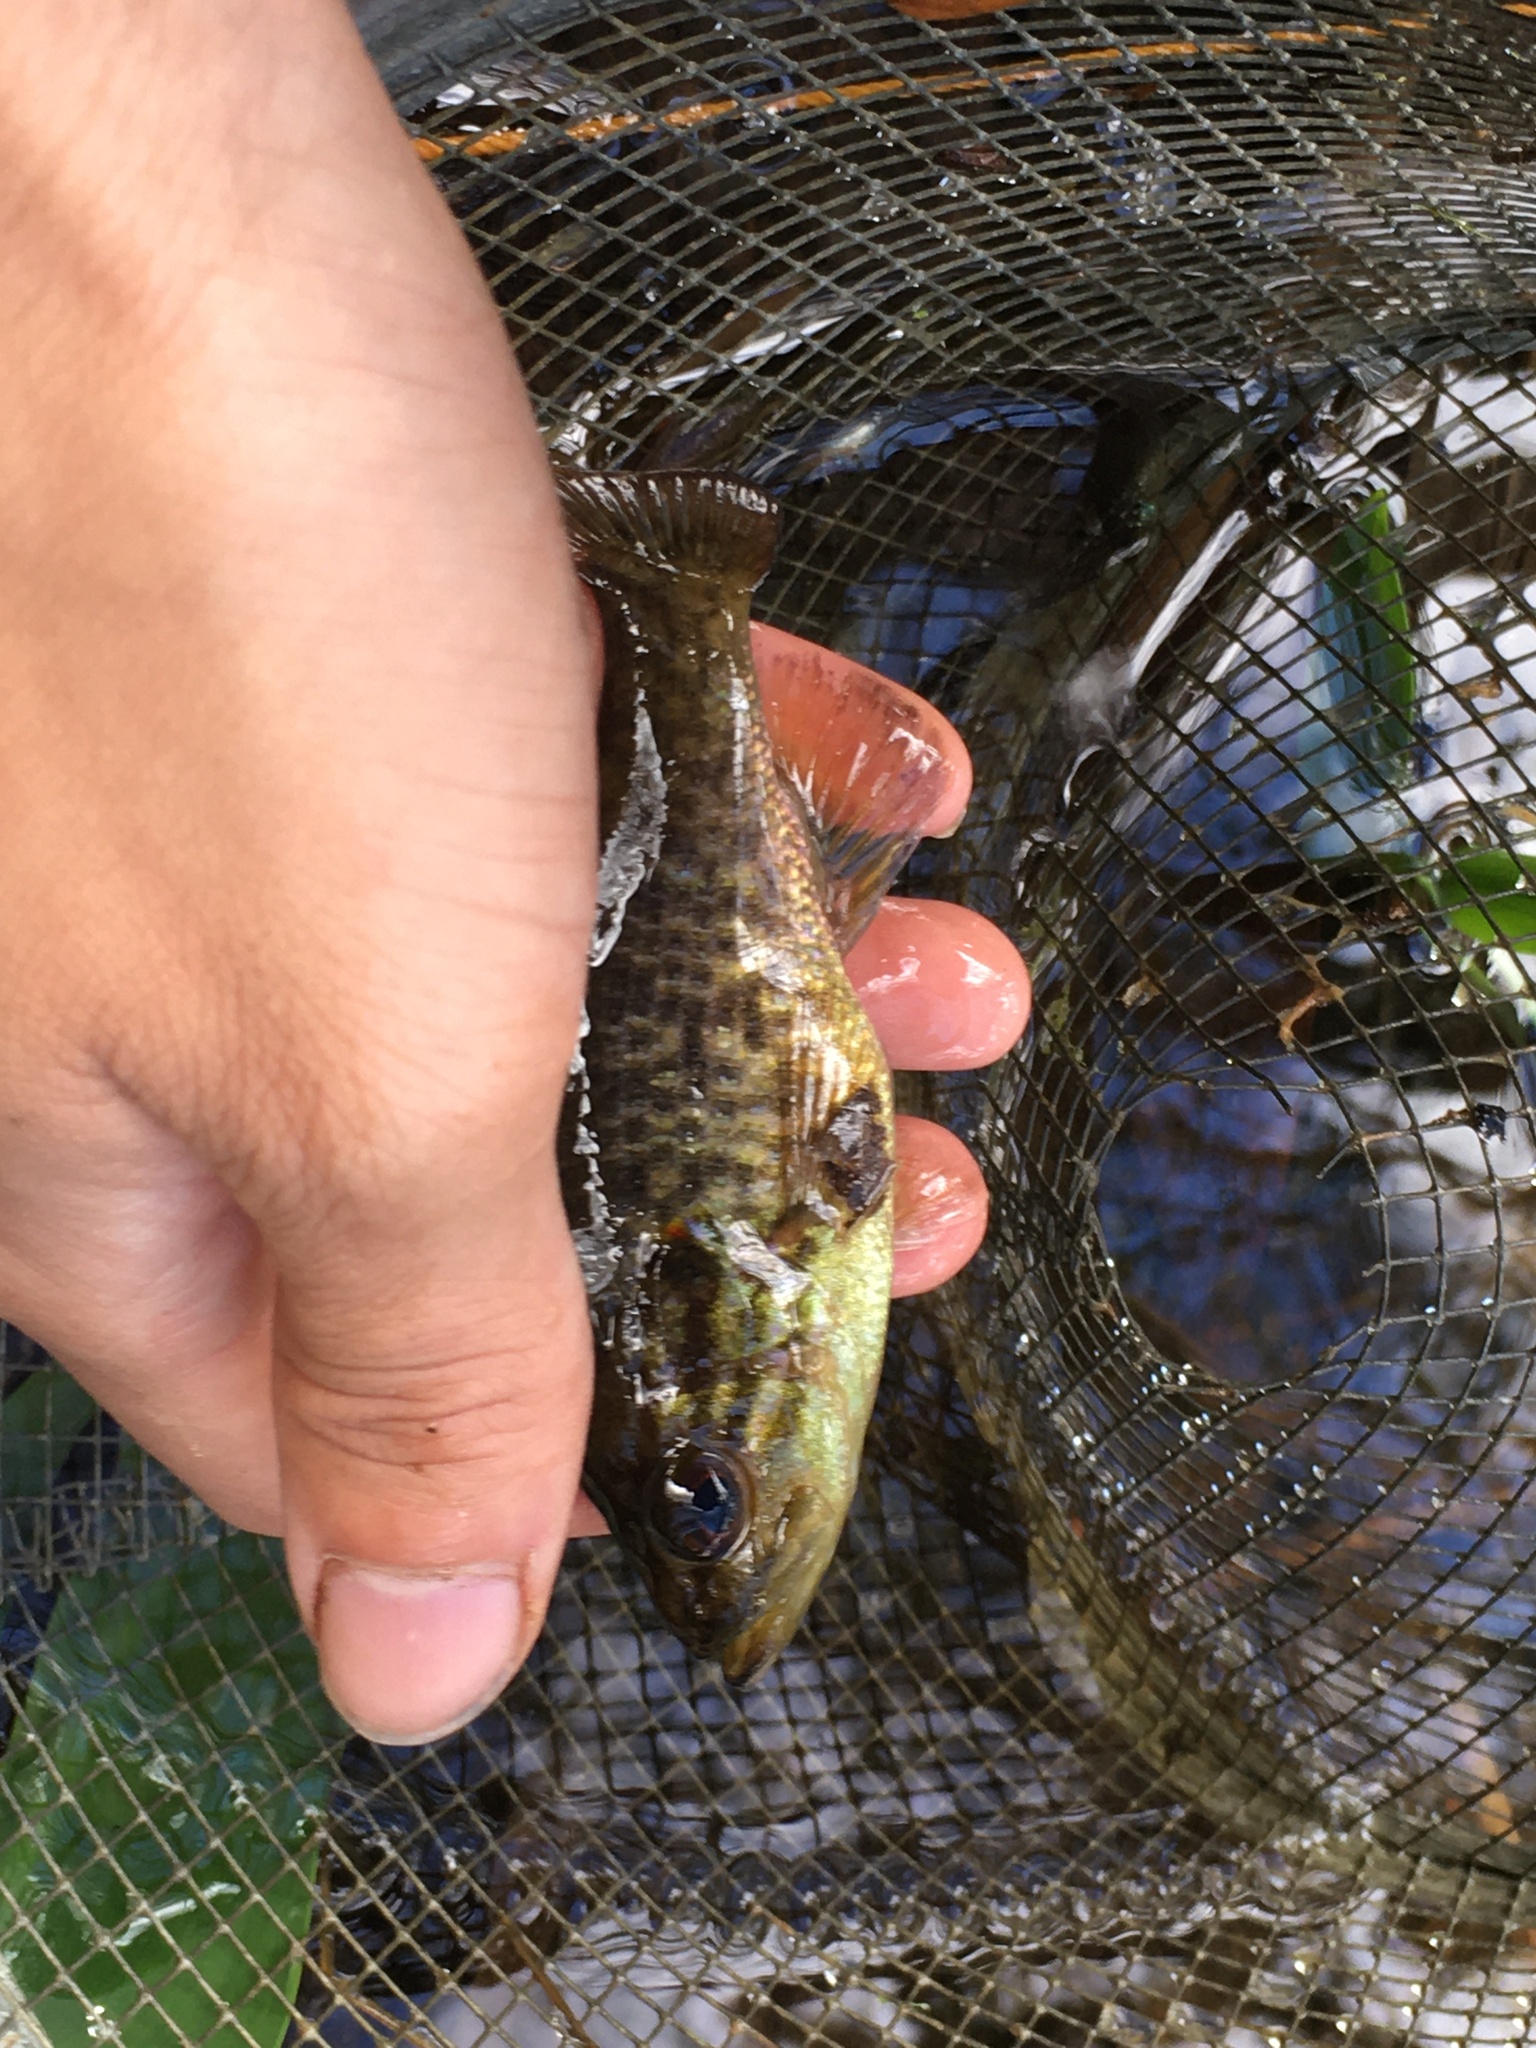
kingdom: Animalia
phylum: Chordata
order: Perciformes
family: Centrarchidae
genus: Lepomis
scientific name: Lepomis gulosus
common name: Warmouth
